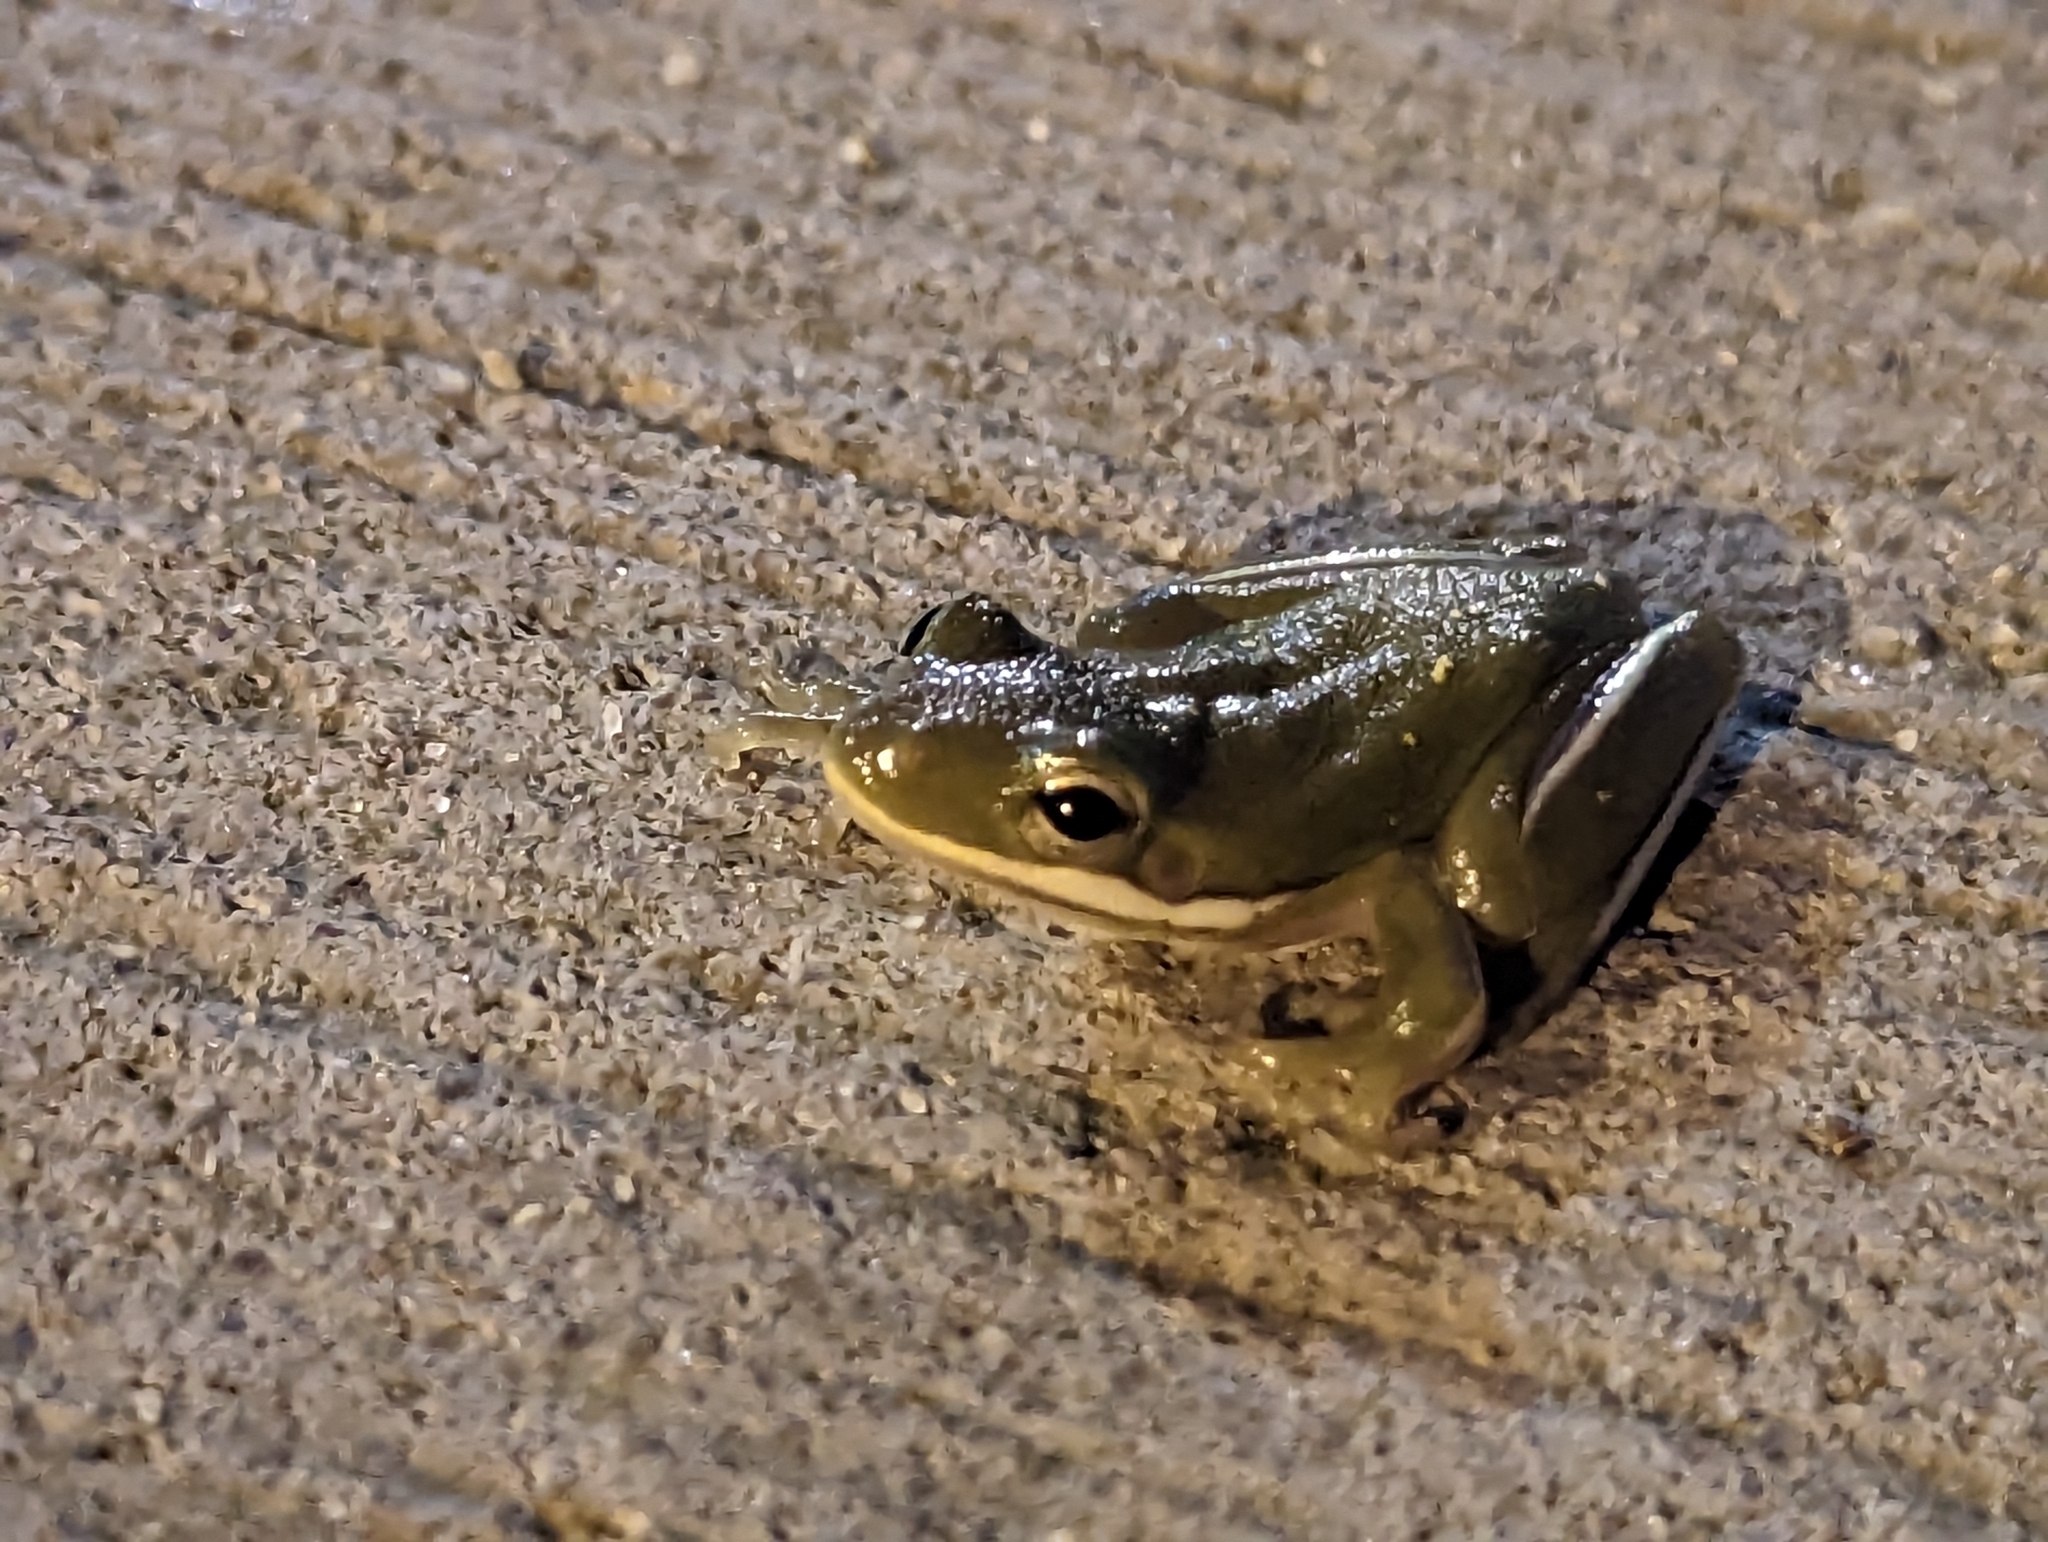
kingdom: Animalia
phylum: Chordata
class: Amphibia
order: Anura
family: Hylidae
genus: Dryophytes
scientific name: Dryophytes cinereus
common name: Green treefrog
